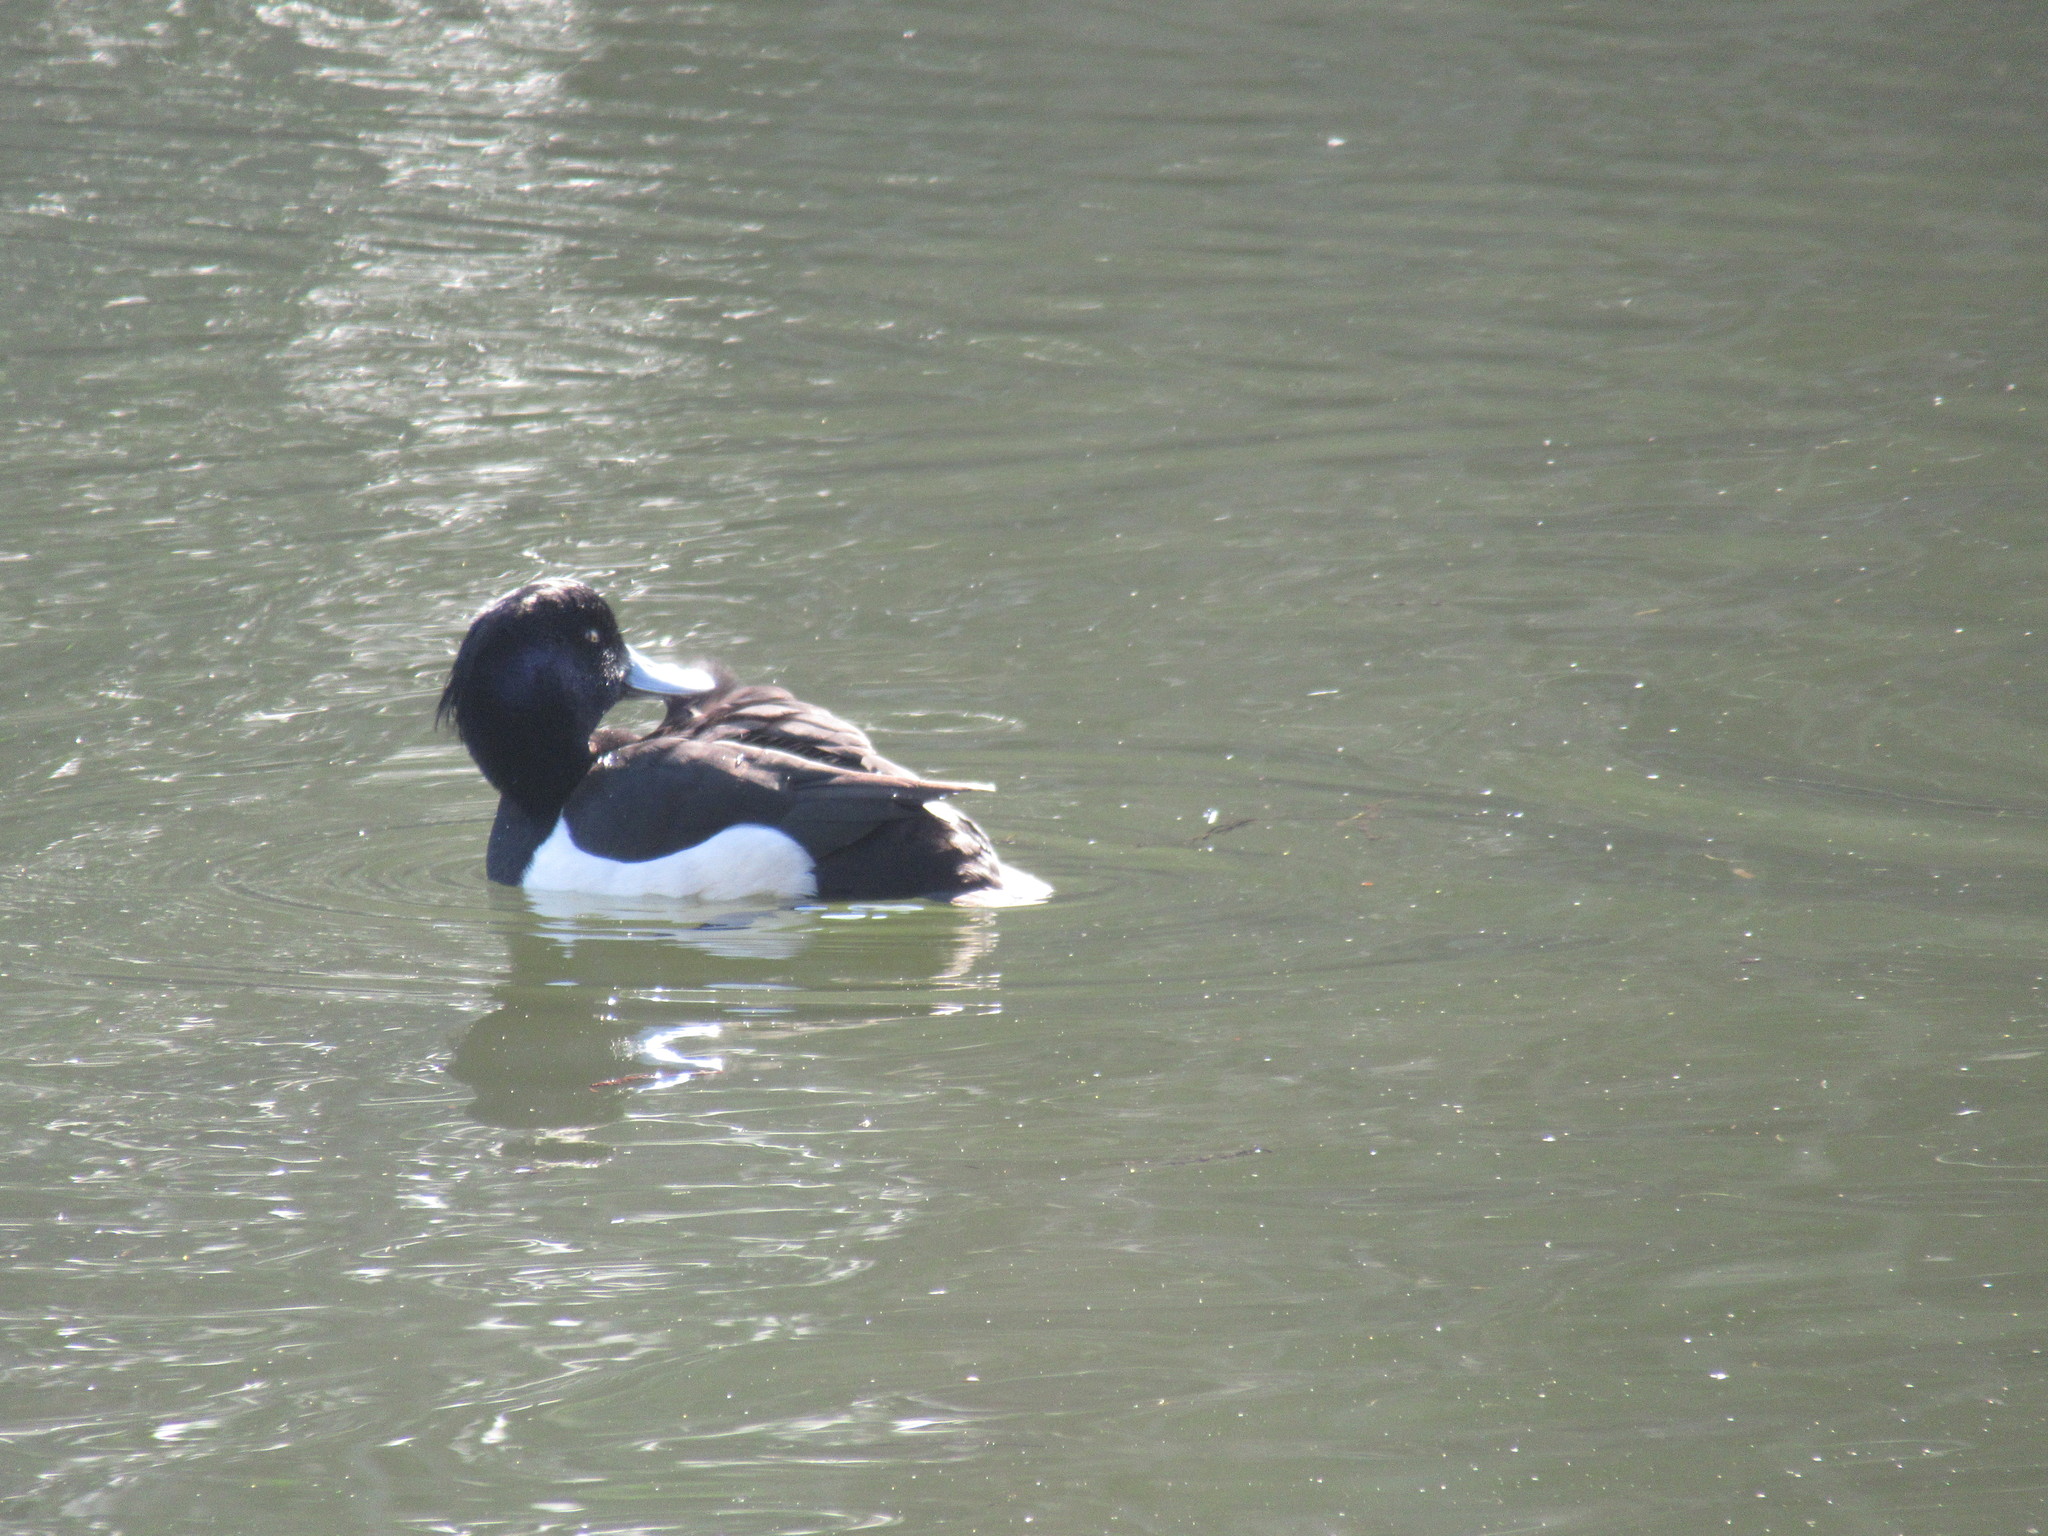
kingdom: Animalia
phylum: Chordata
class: Aves
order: Anseriformes
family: Anatidae
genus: Aythya
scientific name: Aythya fuligula
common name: Tufted duck
